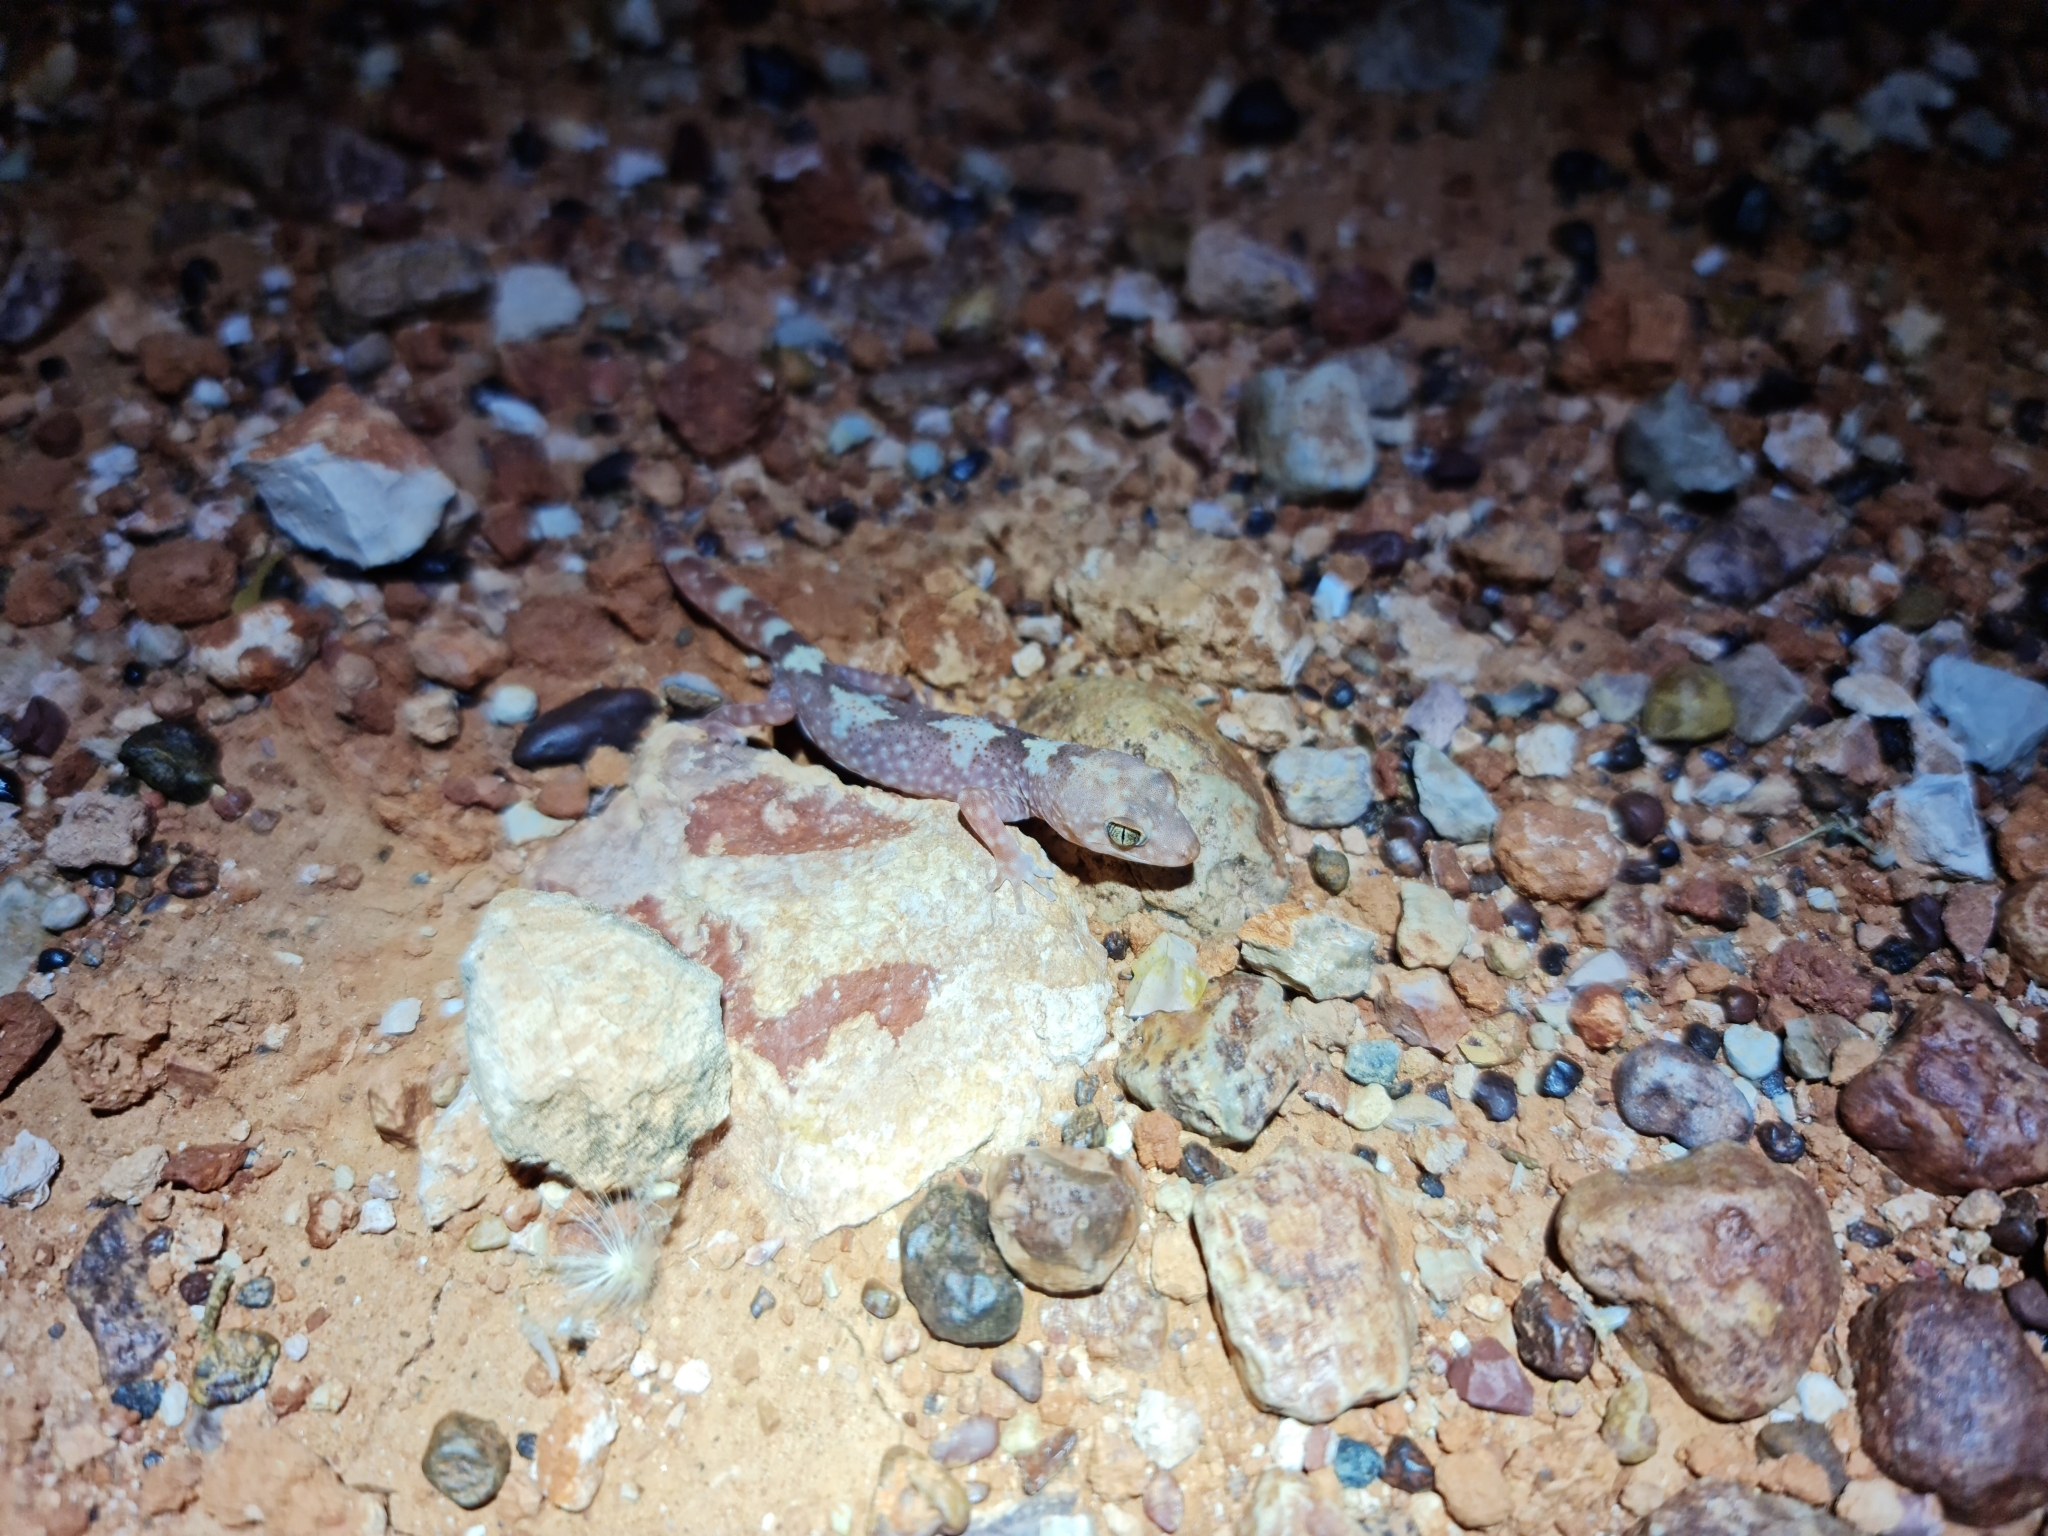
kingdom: Animalia
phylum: Chordata
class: Squamata
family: Diplodactylidae
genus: Lucasium
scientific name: Lucasium byrnei
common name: Byrne's gecko
